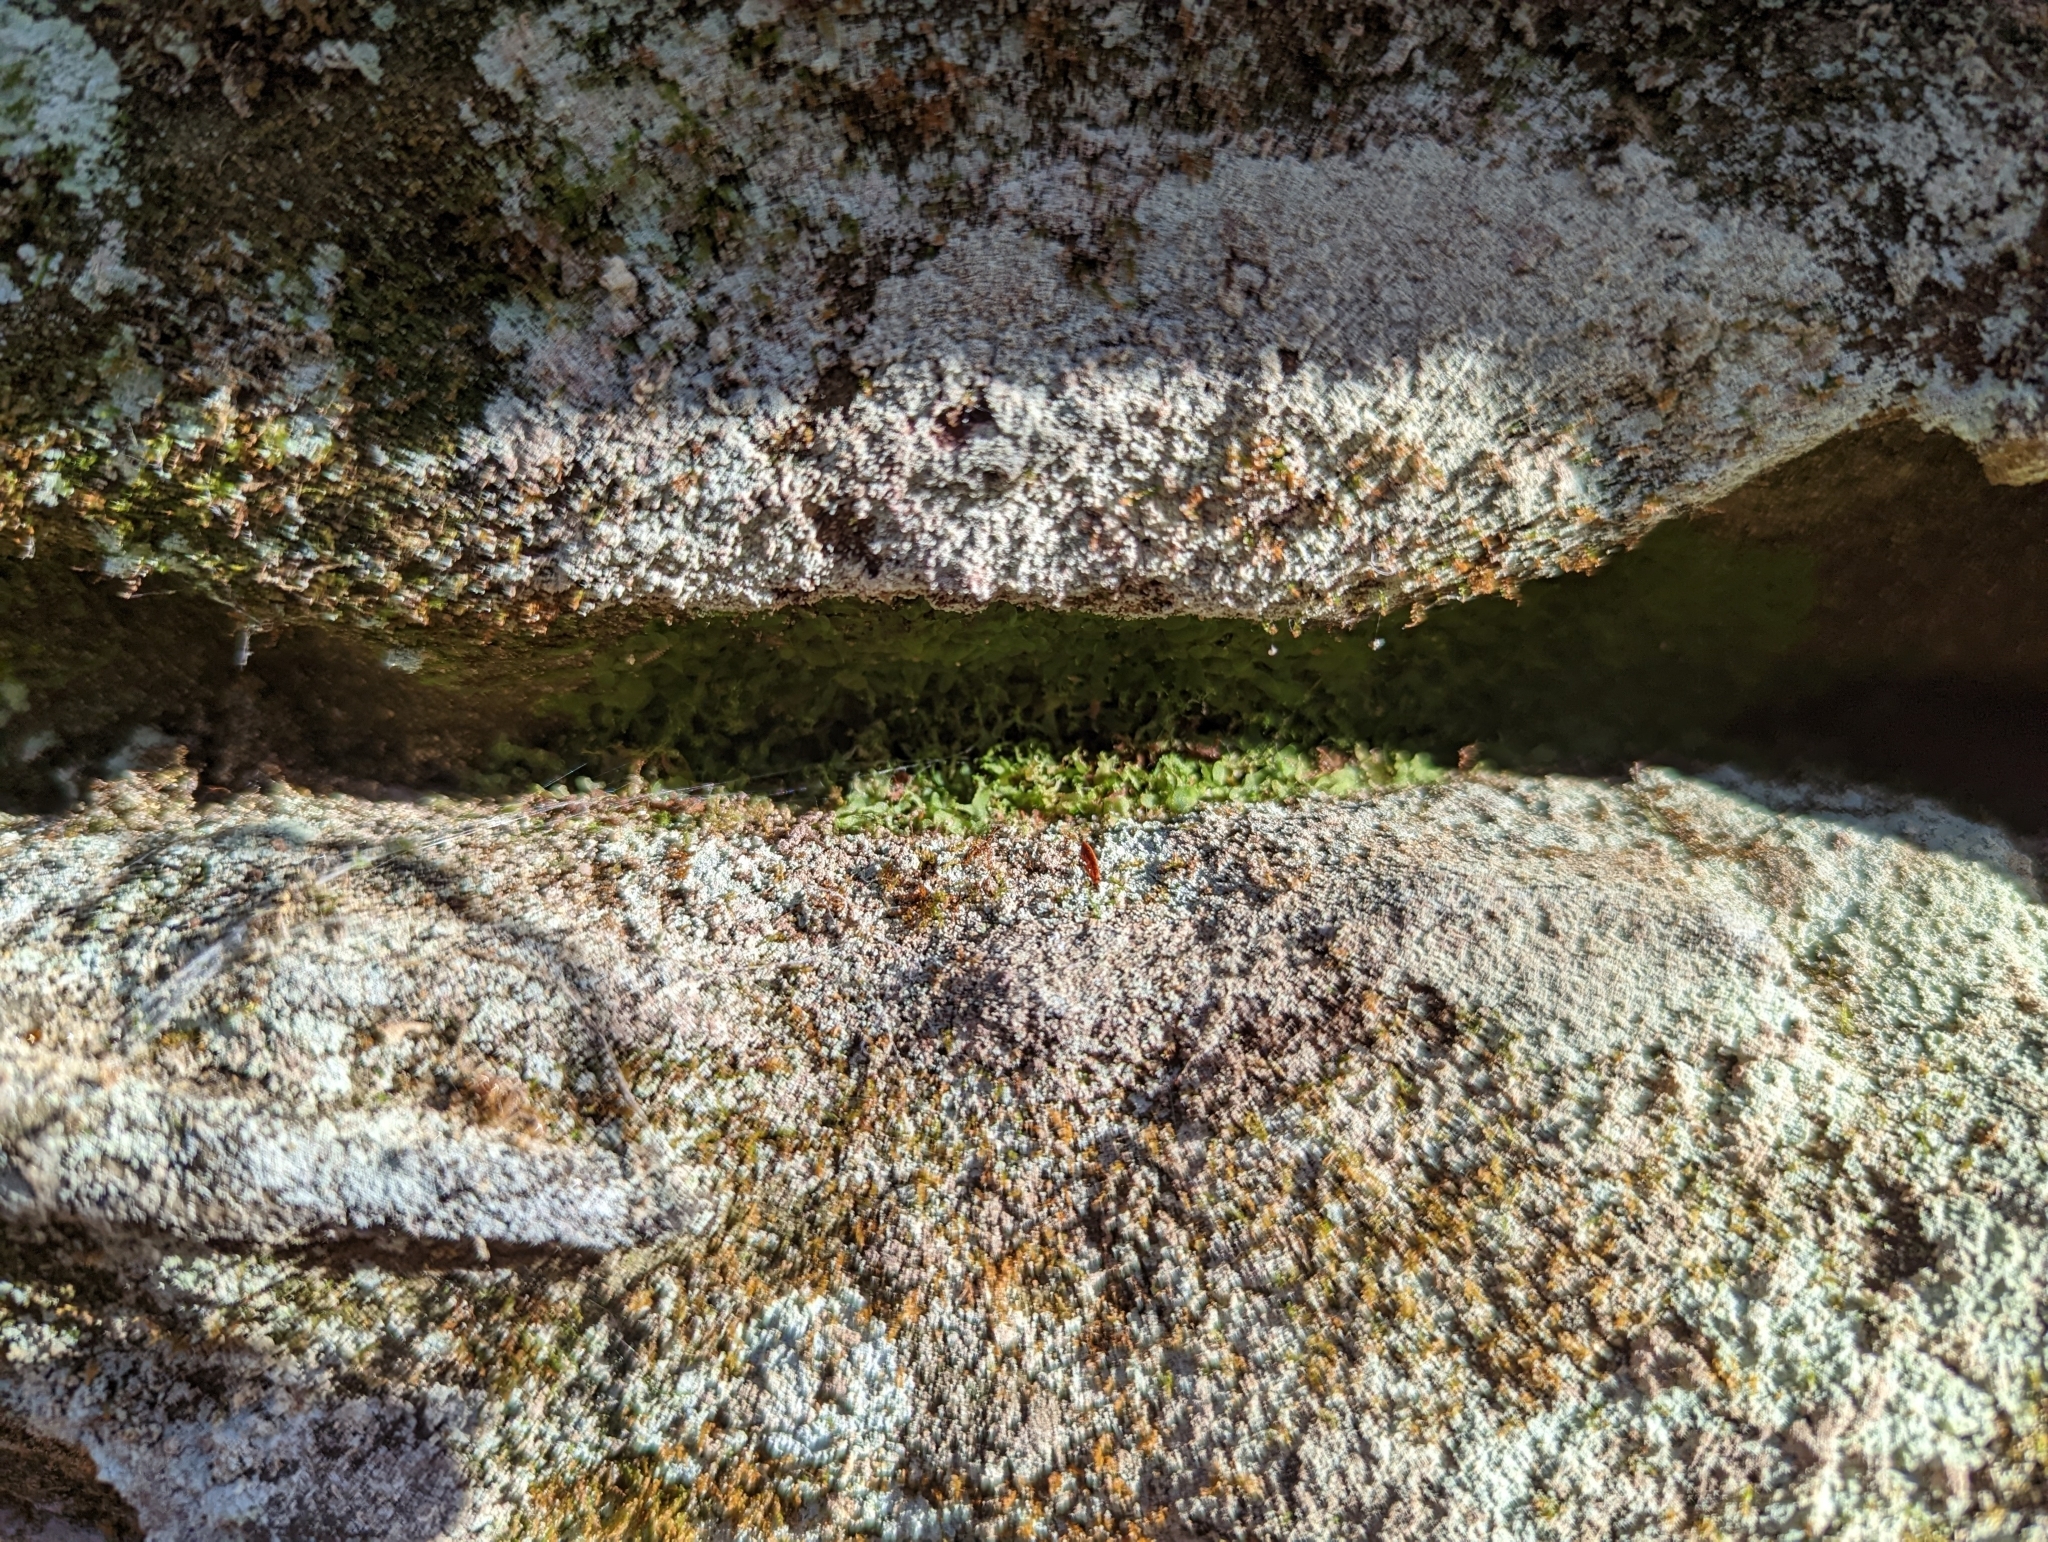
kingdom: Plantae
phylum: Tracheophyta
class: Polypodiopsida
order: Polypodiales
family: Pteridaceae
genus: Vittaria
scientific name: Vittaria appalachiana
